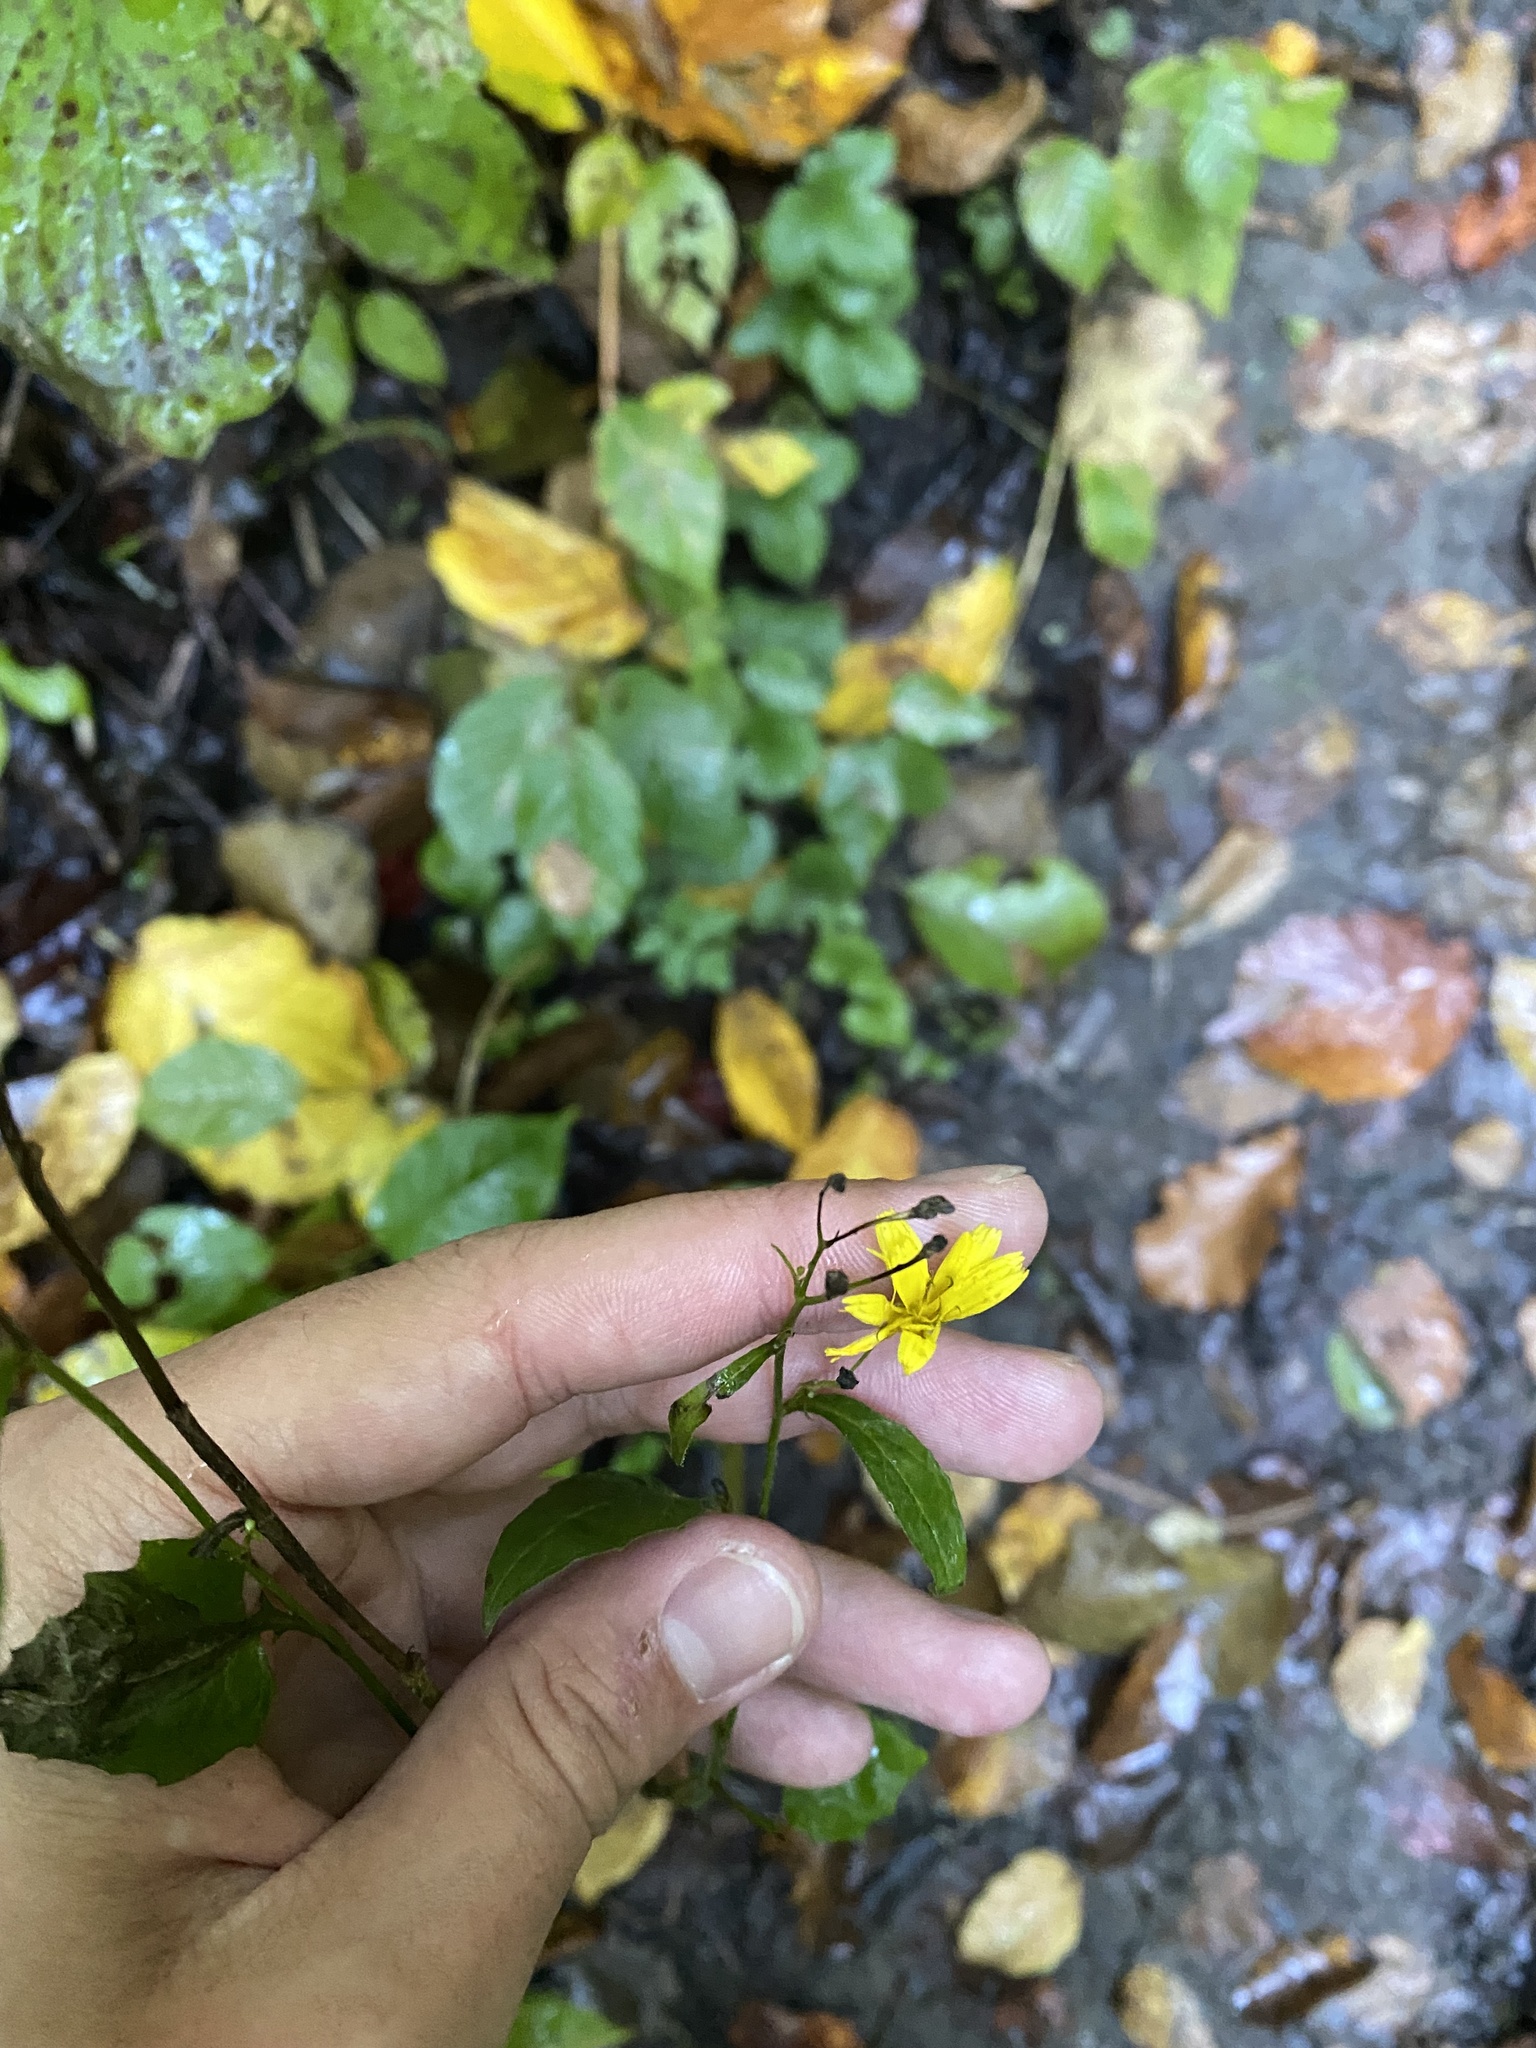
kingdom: Plantae
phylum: Tracheophyta
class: Magnoliopsida
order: Asterales
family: Asteraceae
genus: Lapsana
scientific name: Lapsana communis
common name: Nipplewort
